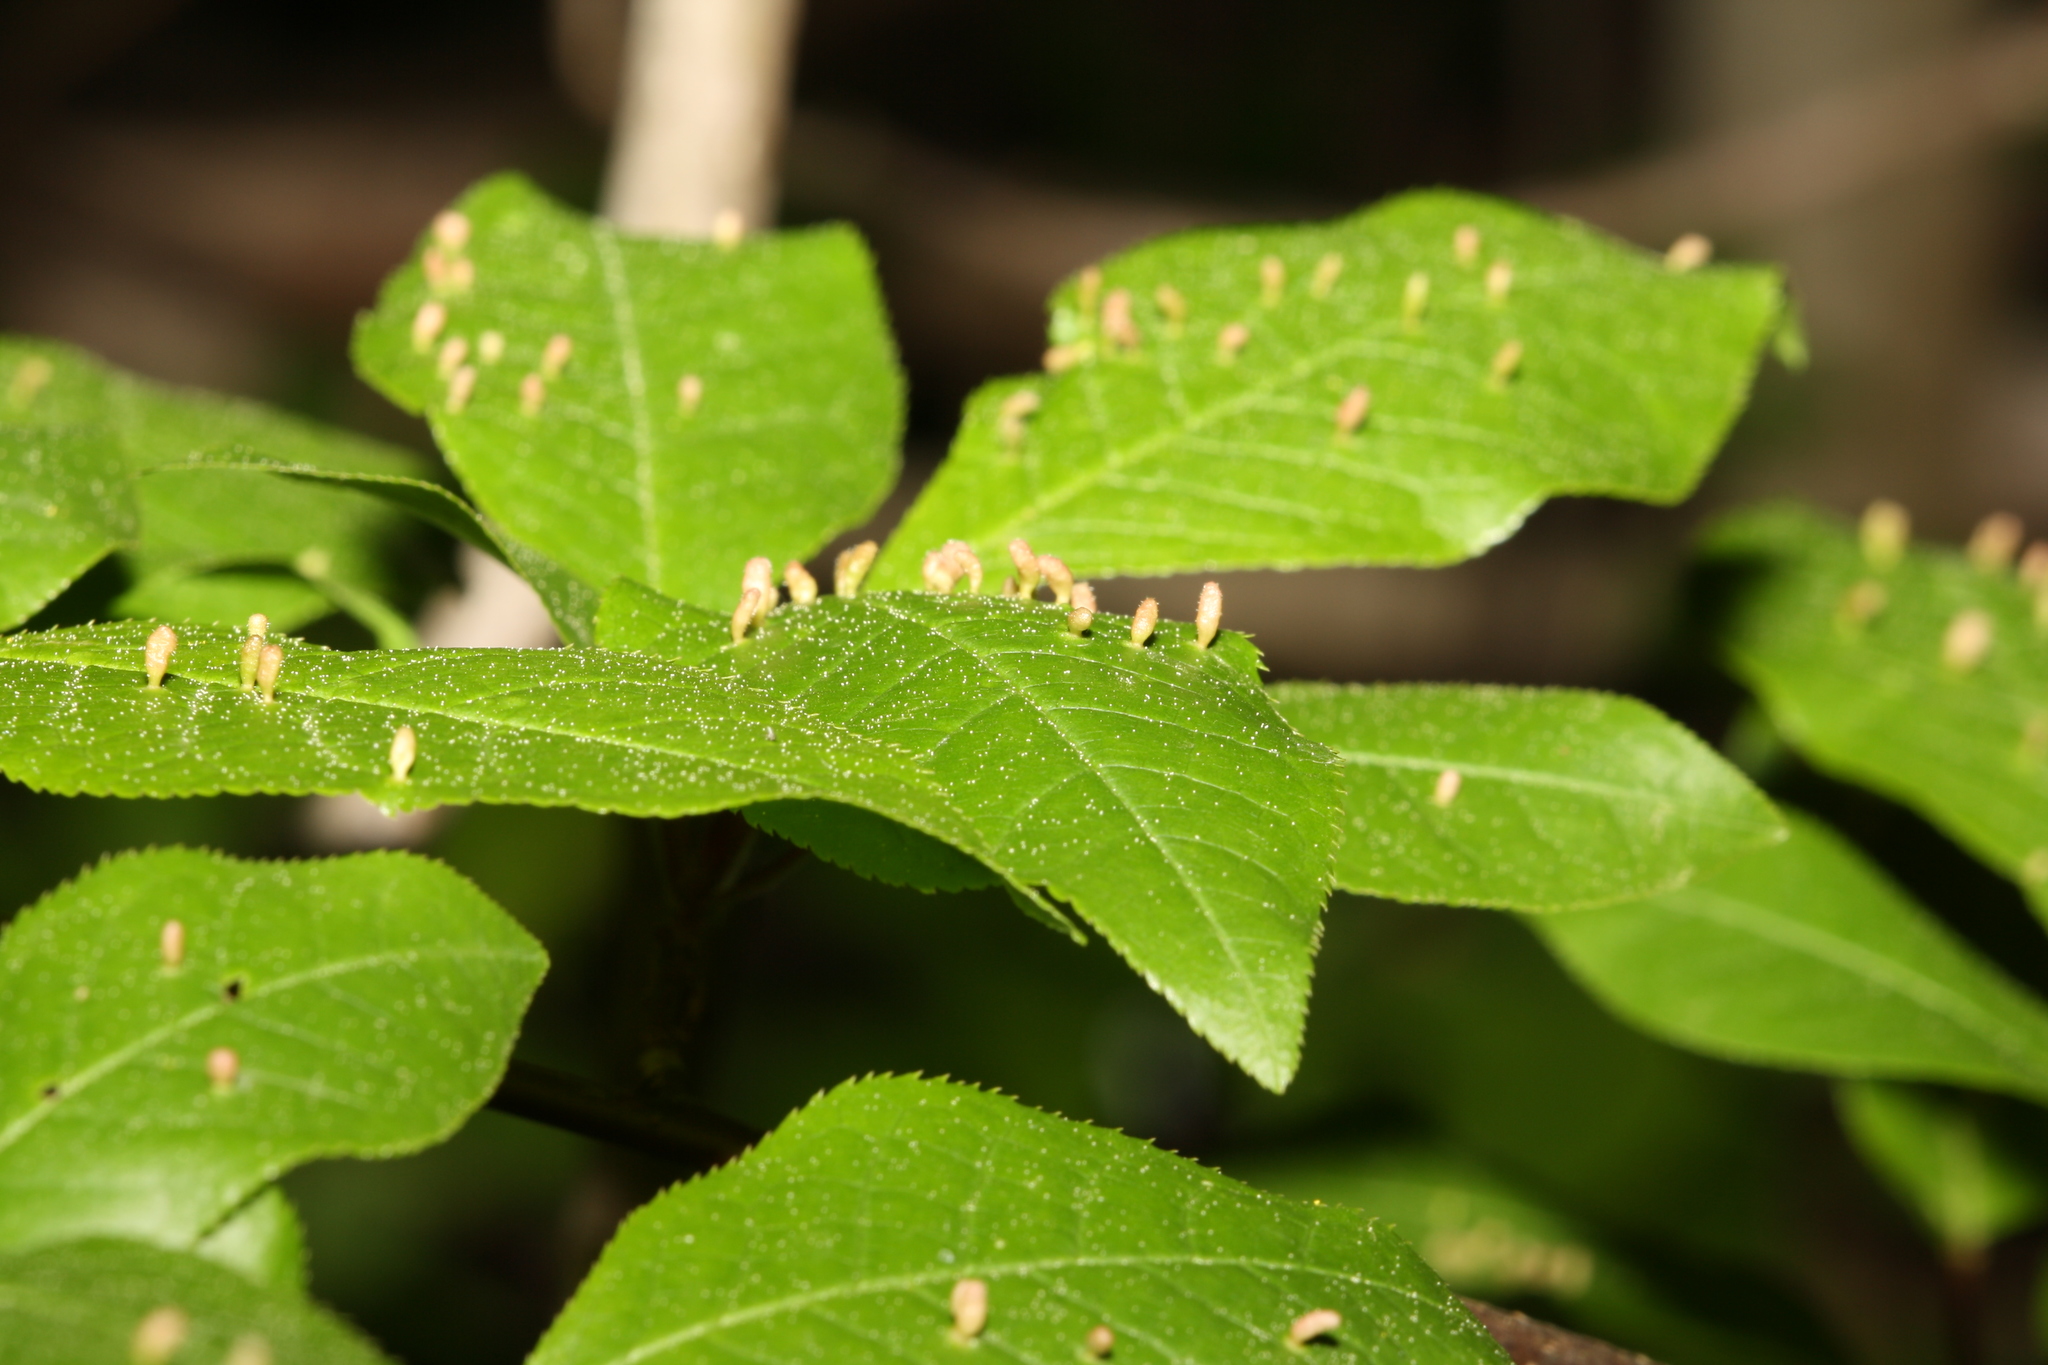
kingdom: Animalia
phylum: Arthropoda
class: Arachnida
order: Trombidiformes
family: Eriophyidae
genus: Phyllocoptes
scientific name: Phyllocoptes eupadi
